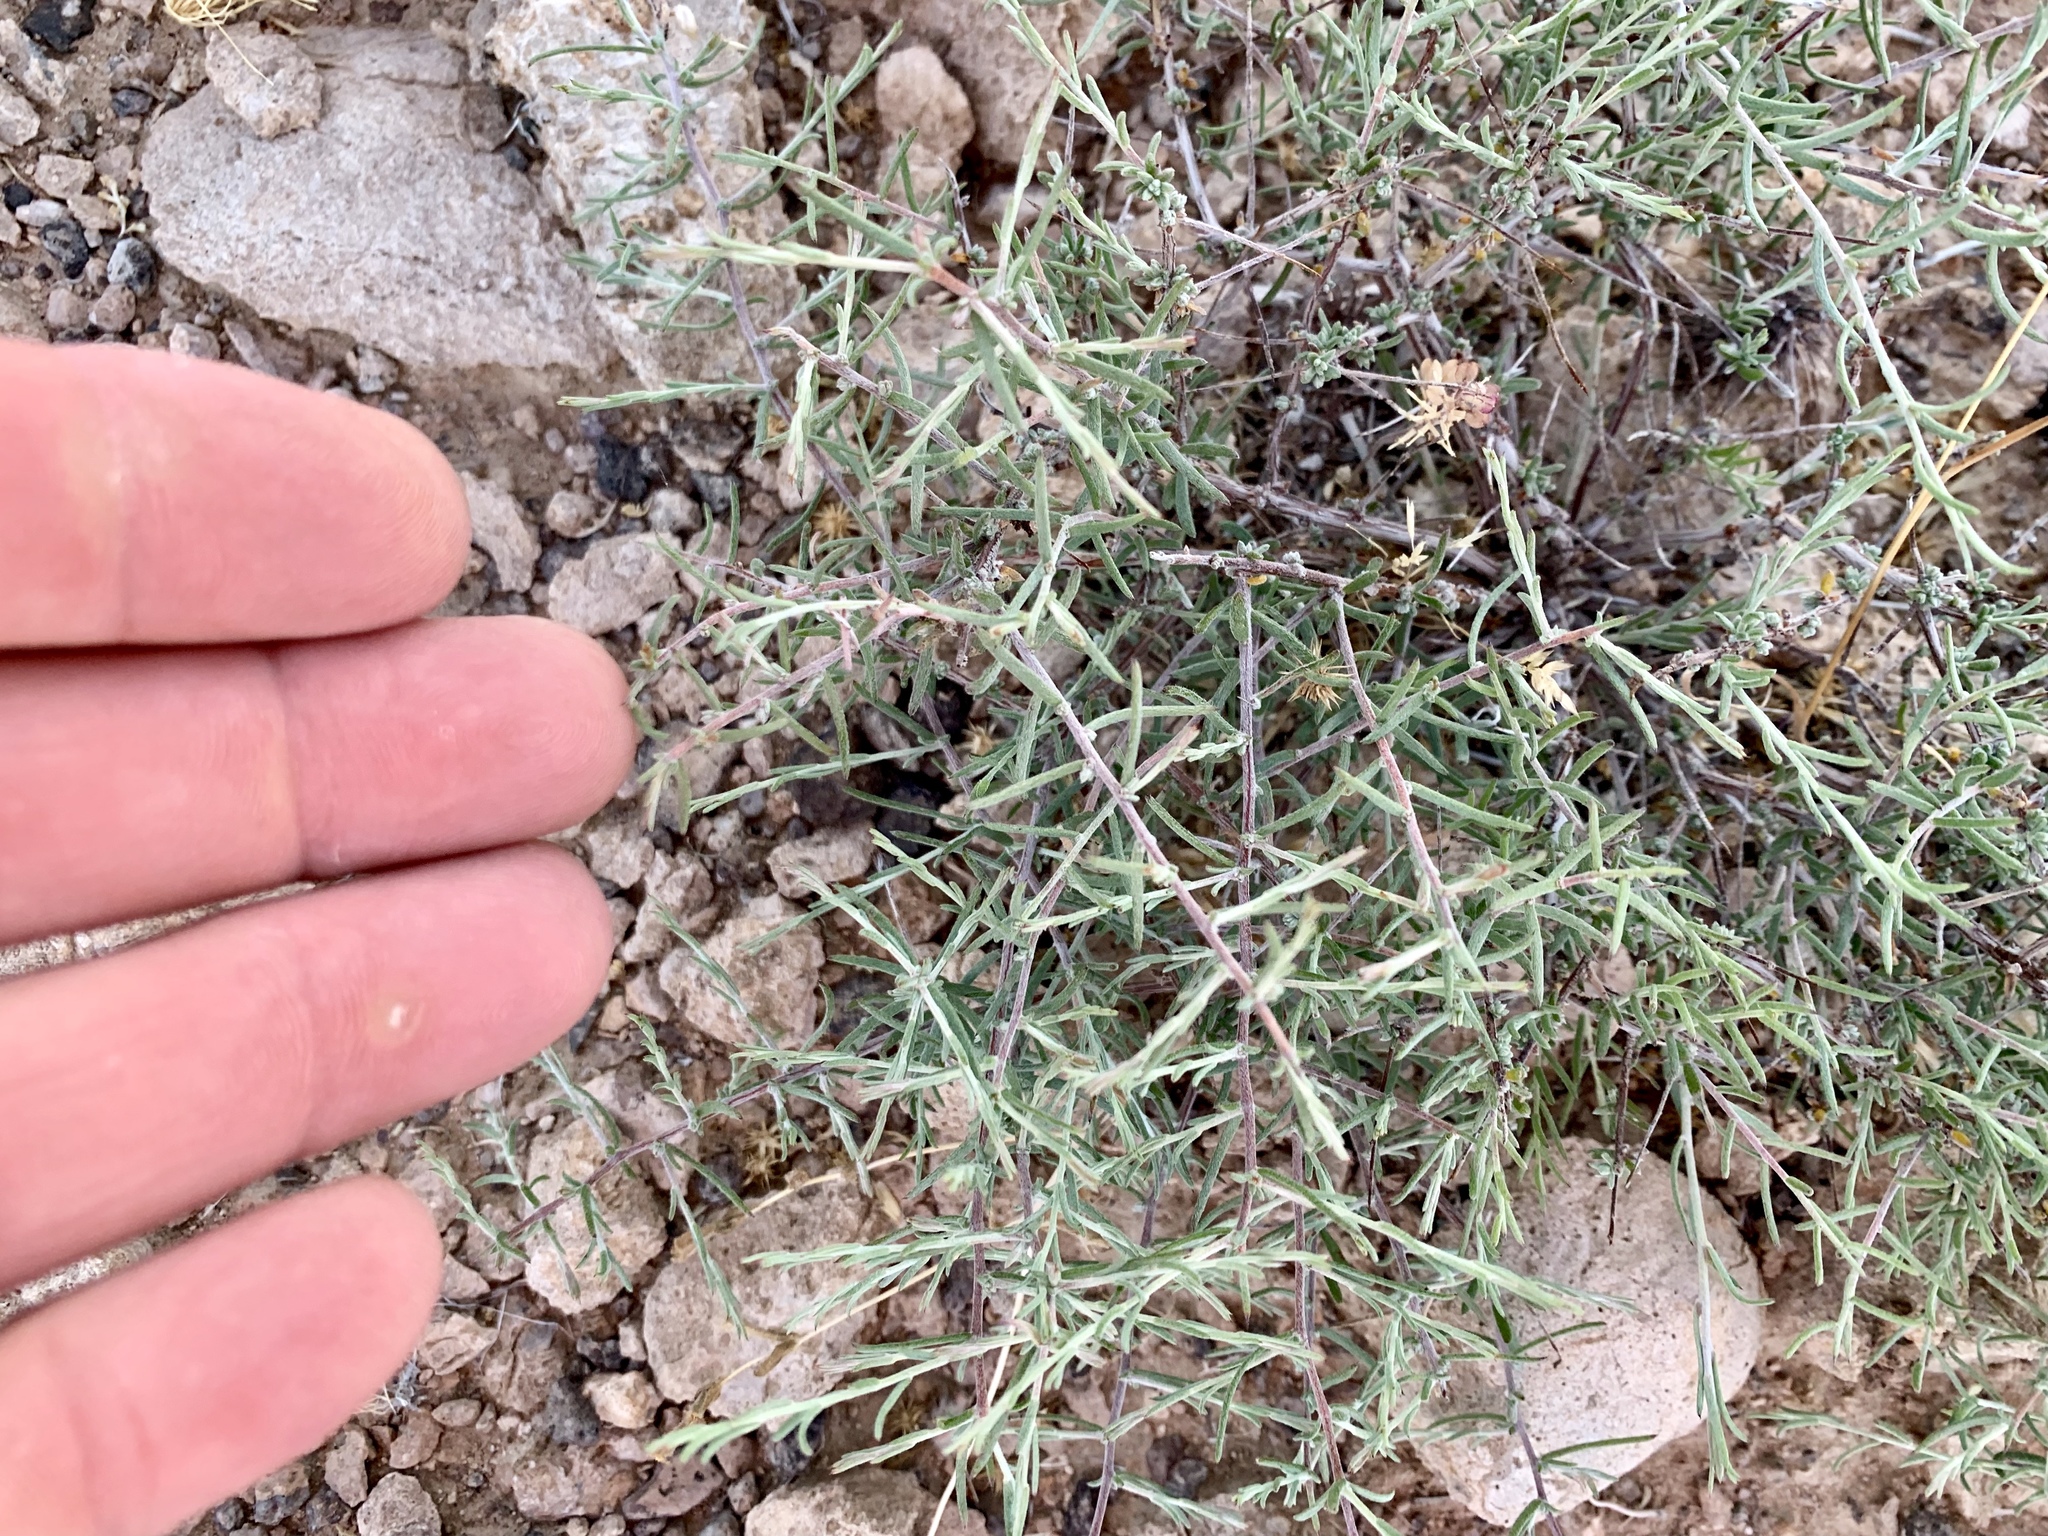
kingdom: Plantae
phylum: Tracheophyta
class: Magnoliopsida
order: Lamiales
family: Oleaceae
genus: Menodora
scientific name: Menodora spinescens
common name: Spiny menodora
